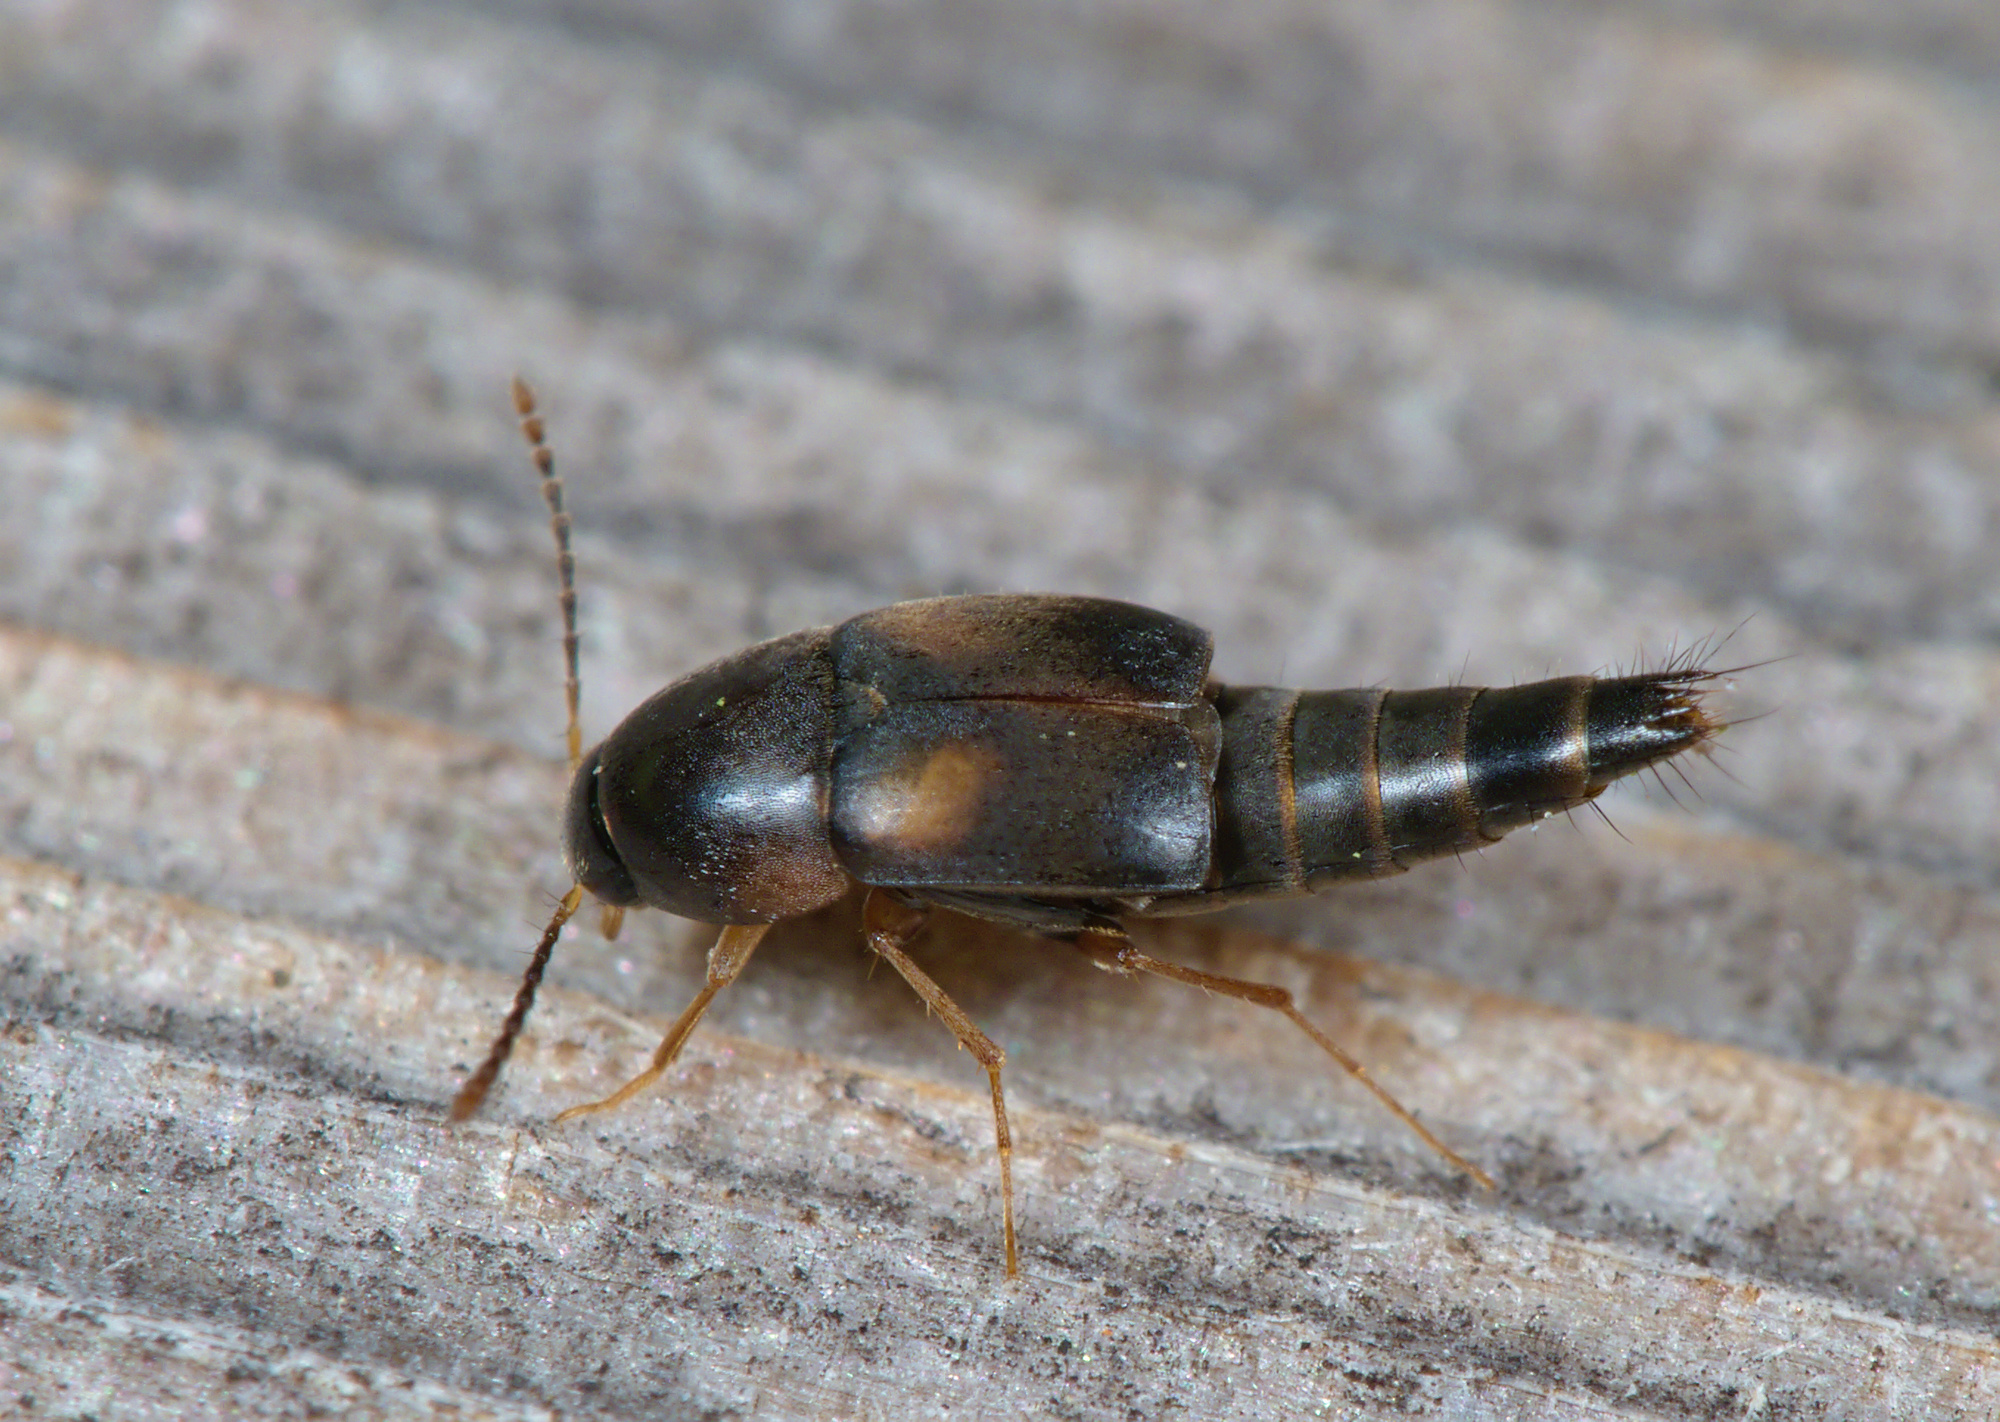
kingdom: Animalia
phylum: Arthropoda
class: Insecta
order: Coleoptera
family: Staphylinidae
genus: Sepedophilus
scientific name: Sepedophilus littoreus
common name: Staph beetle
